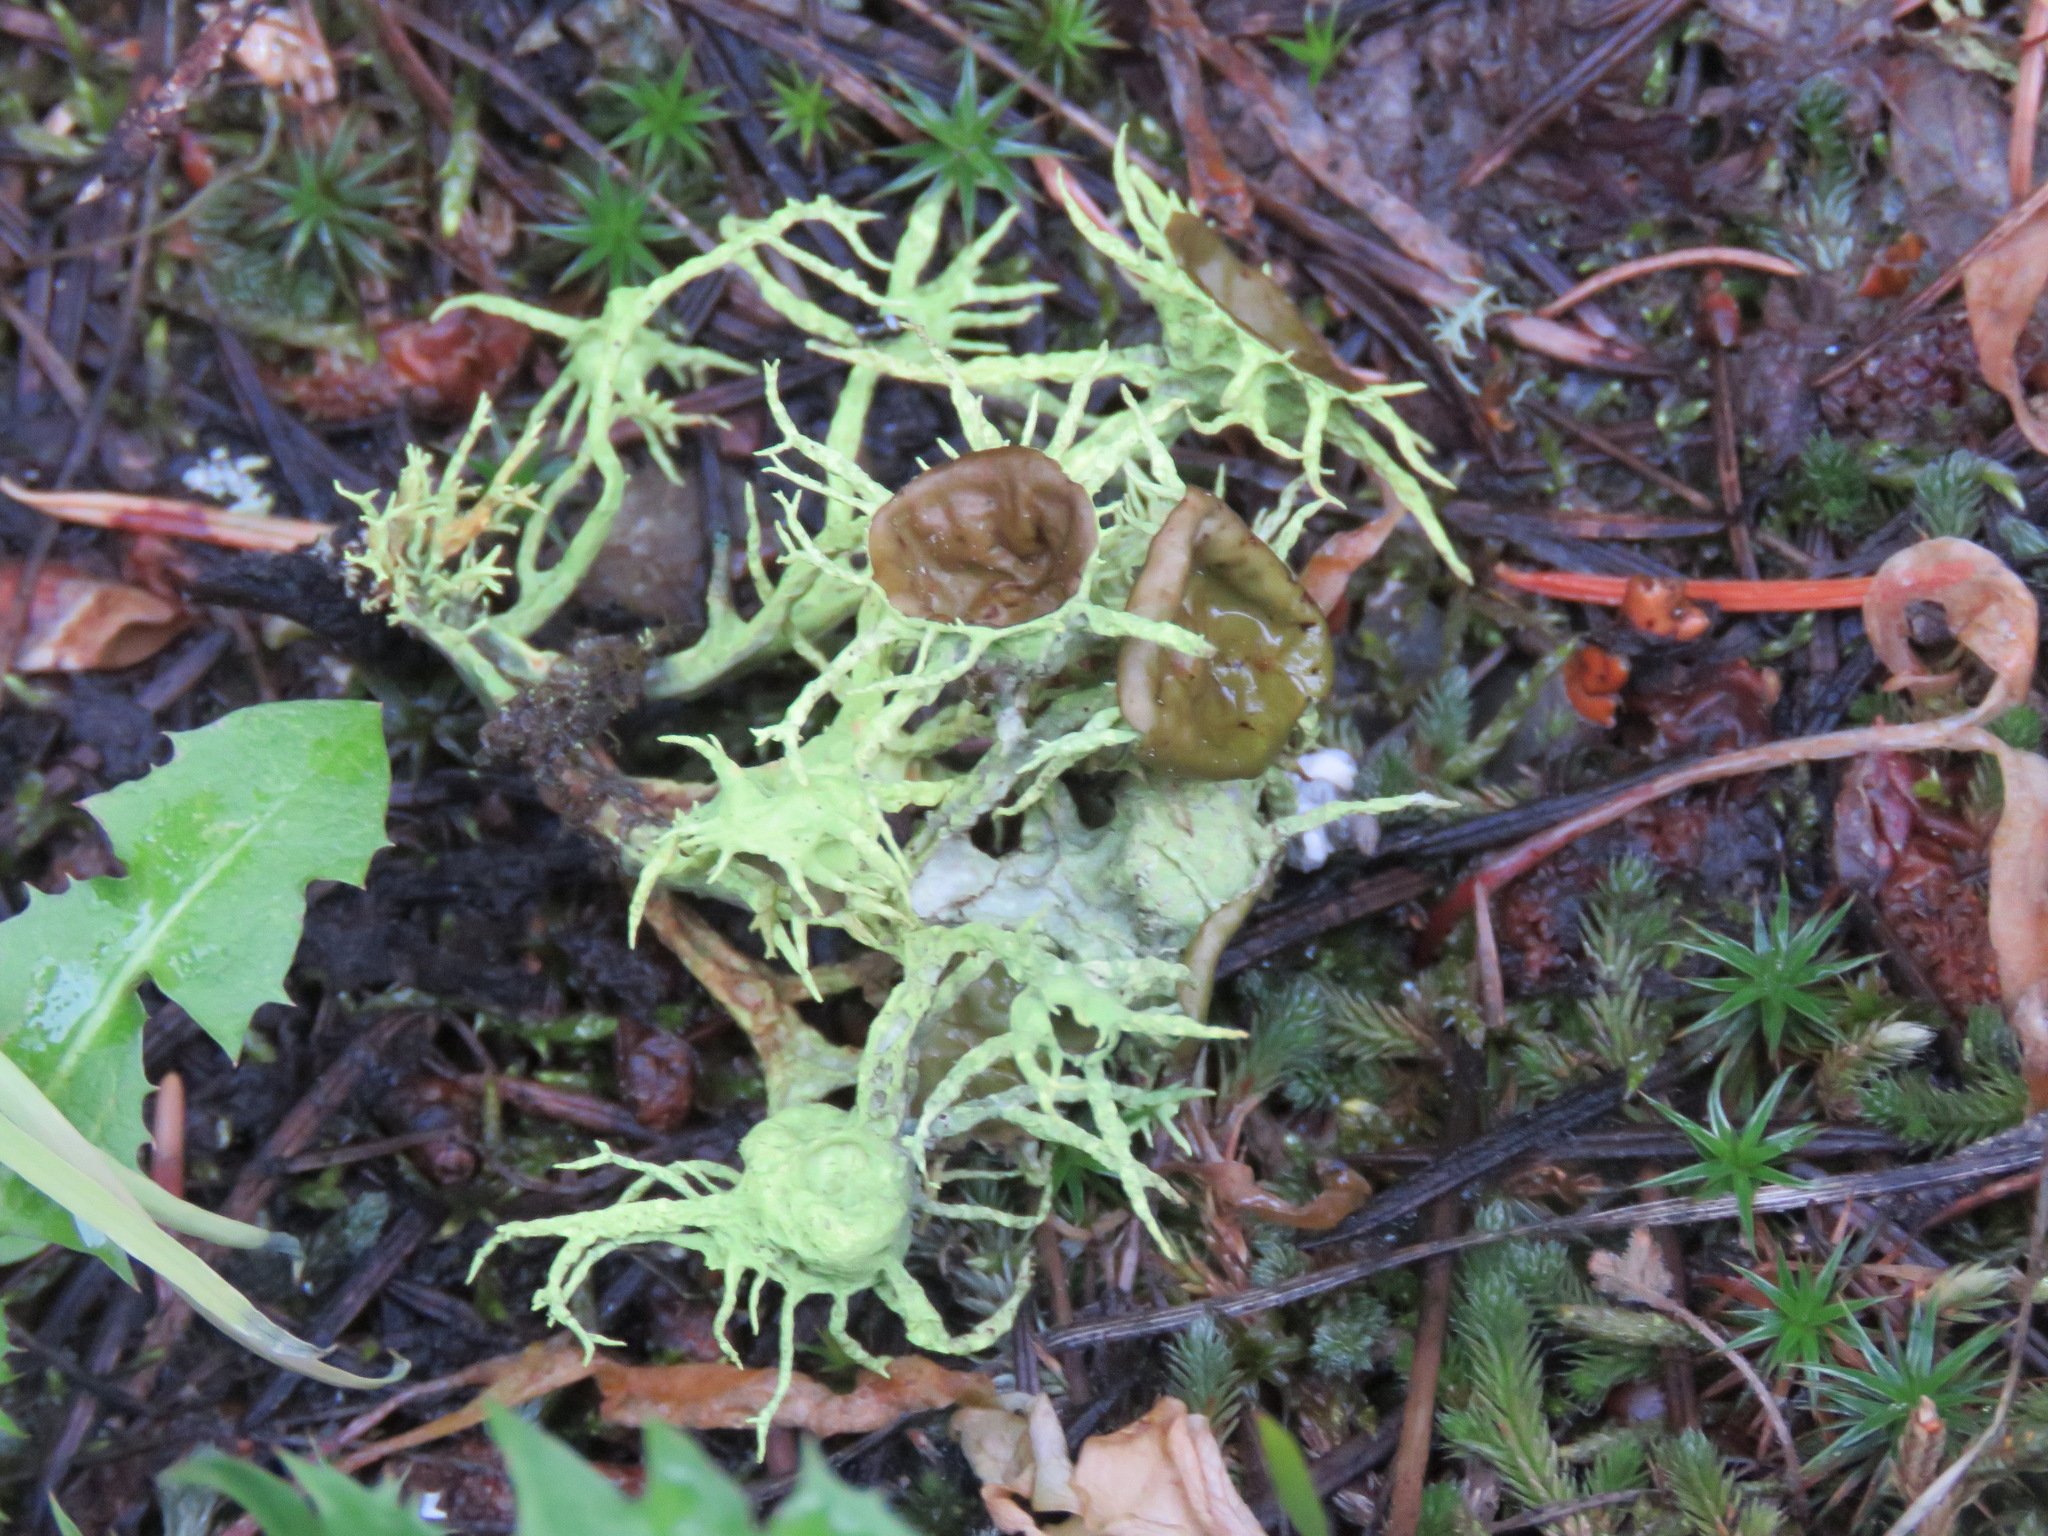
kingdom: Fungi
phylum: Ascomycota
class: Lecanoromycetes
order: Lecanorales
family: Parmeliaceae
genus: Letharia
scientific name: Letharia columbiana
